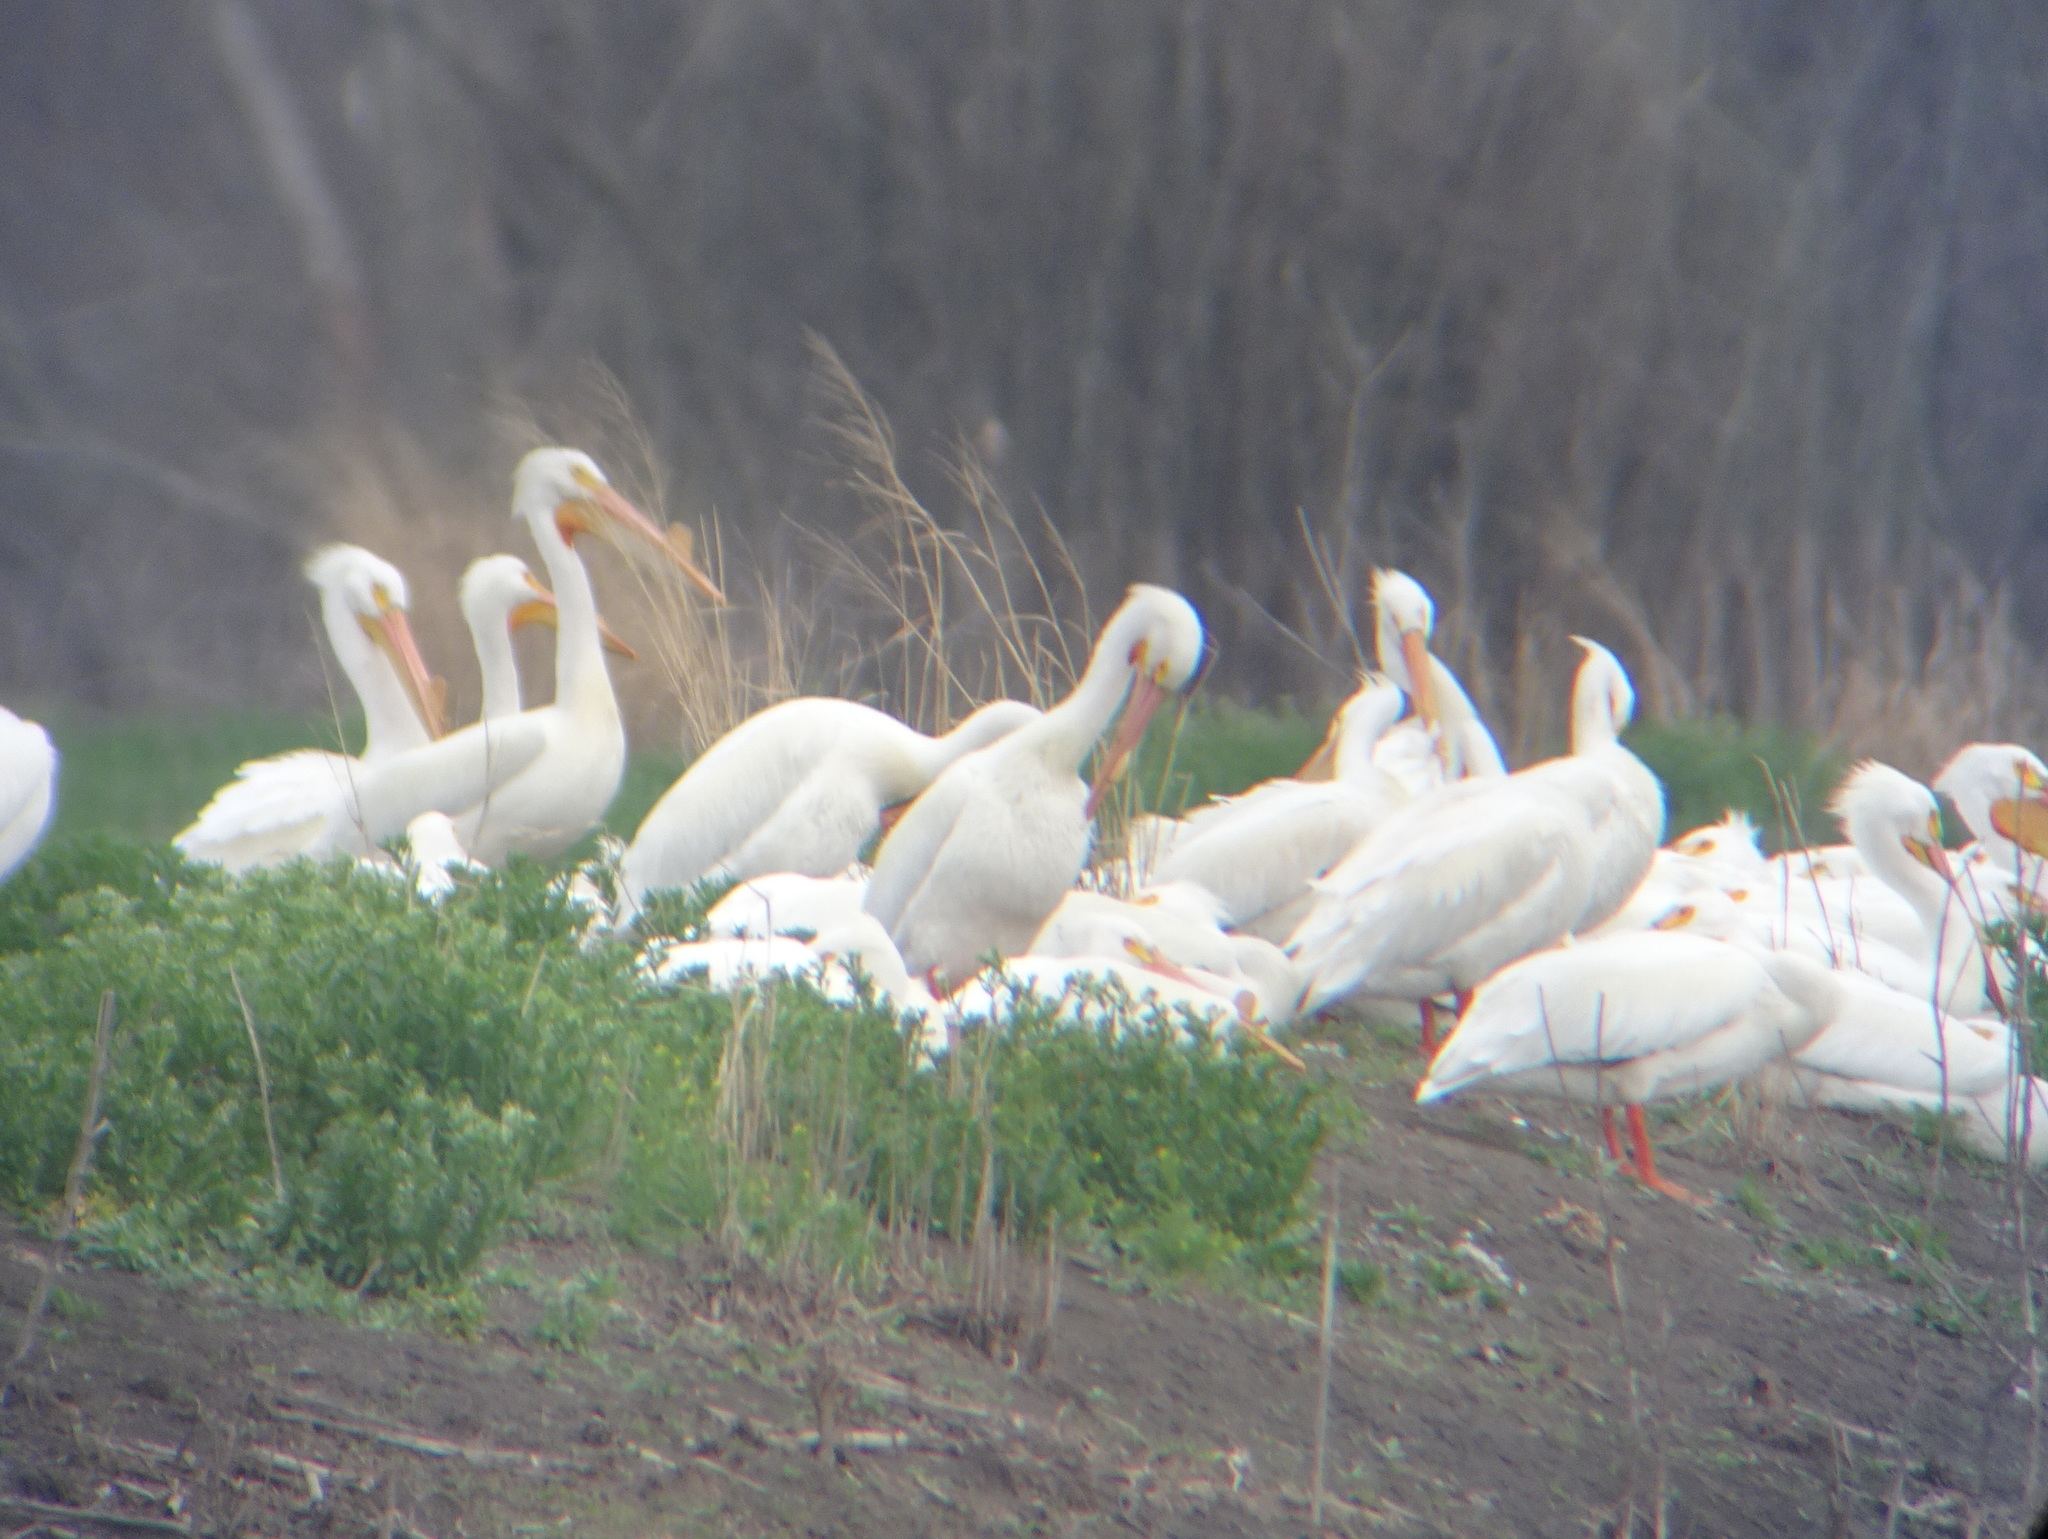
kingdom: Animalia
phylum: Chordata
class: Aves
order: Pelecaniformes
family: Pelecanidae
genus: Pelecanus
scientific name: Pelecanus erythrorhynchos
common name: American white pelican
